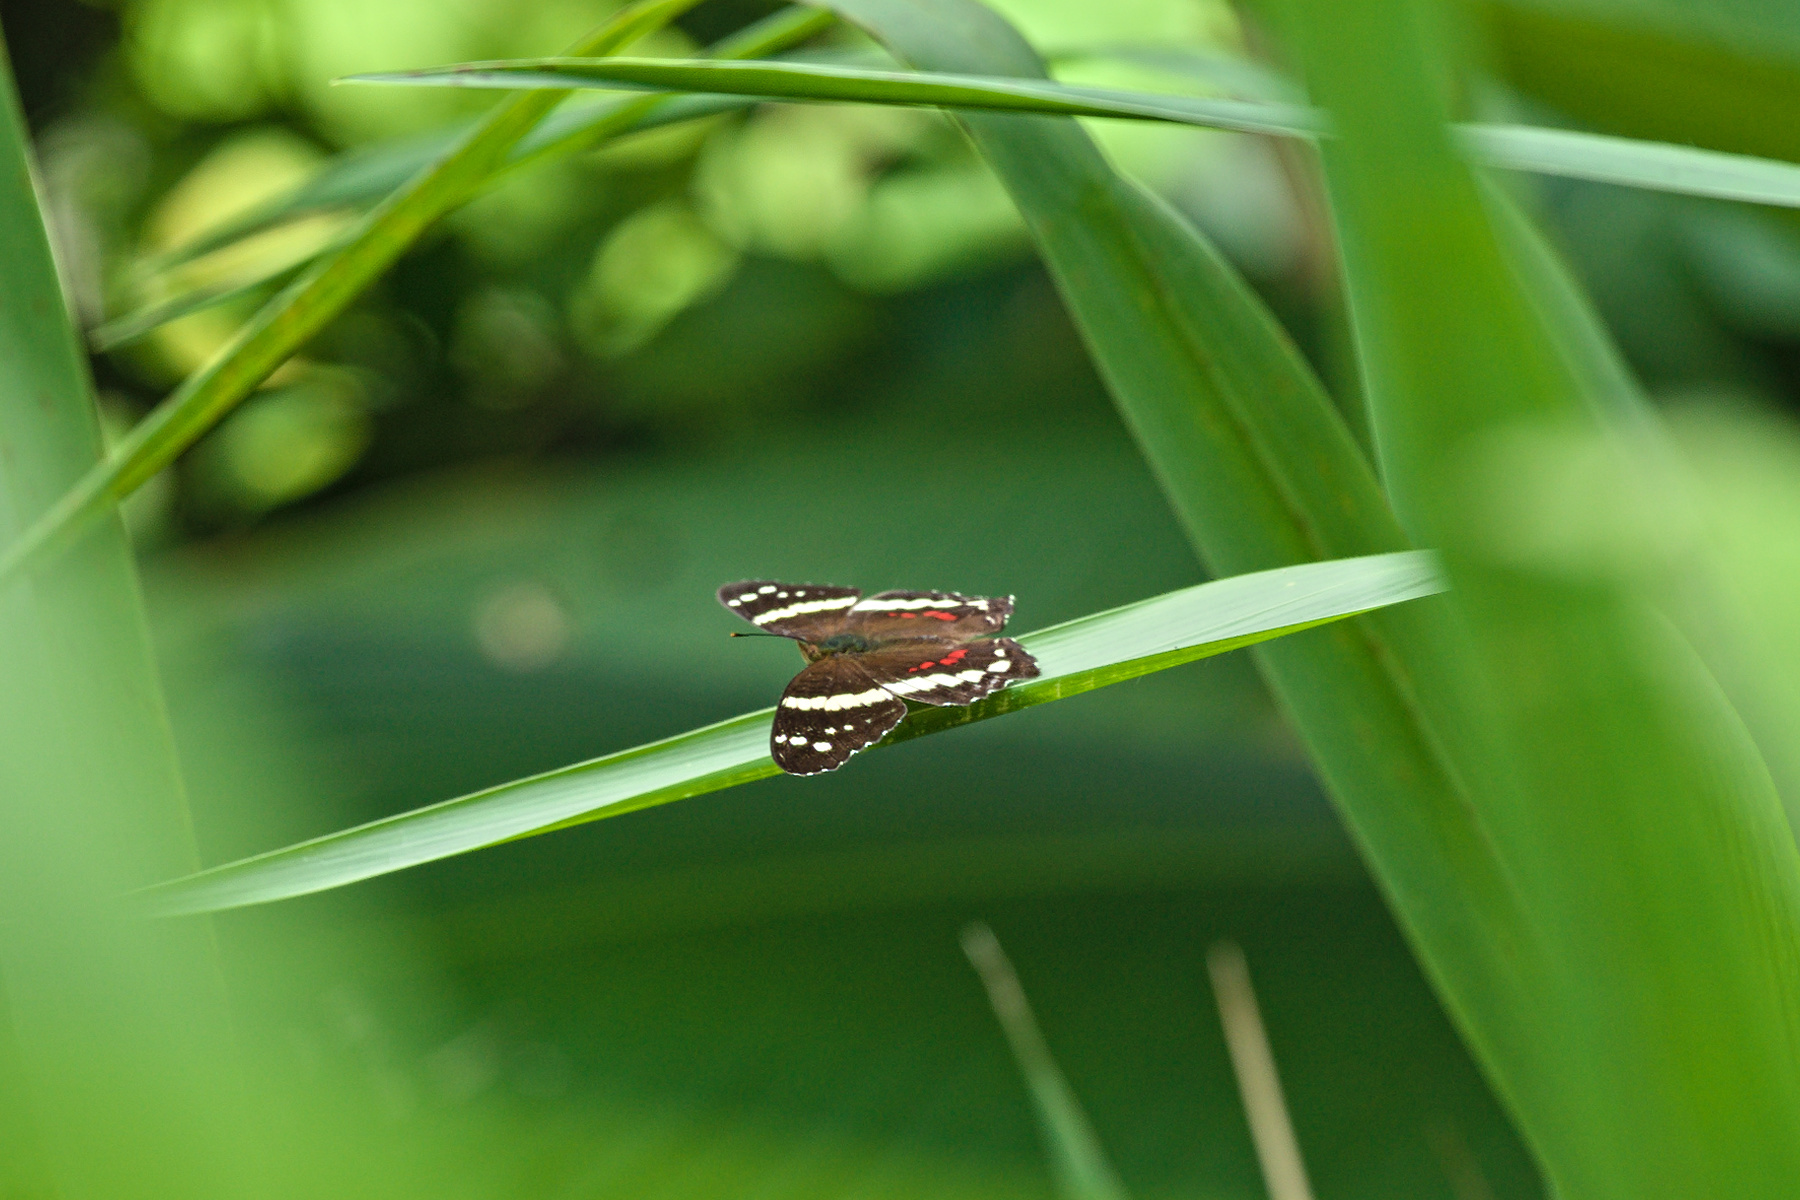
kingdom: Animalia
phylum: Arthropoda
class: Insecta
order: Lepidoptera
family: Nymphalidae
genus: Anartia
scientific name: Anartia fatima
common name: Banded peacock
